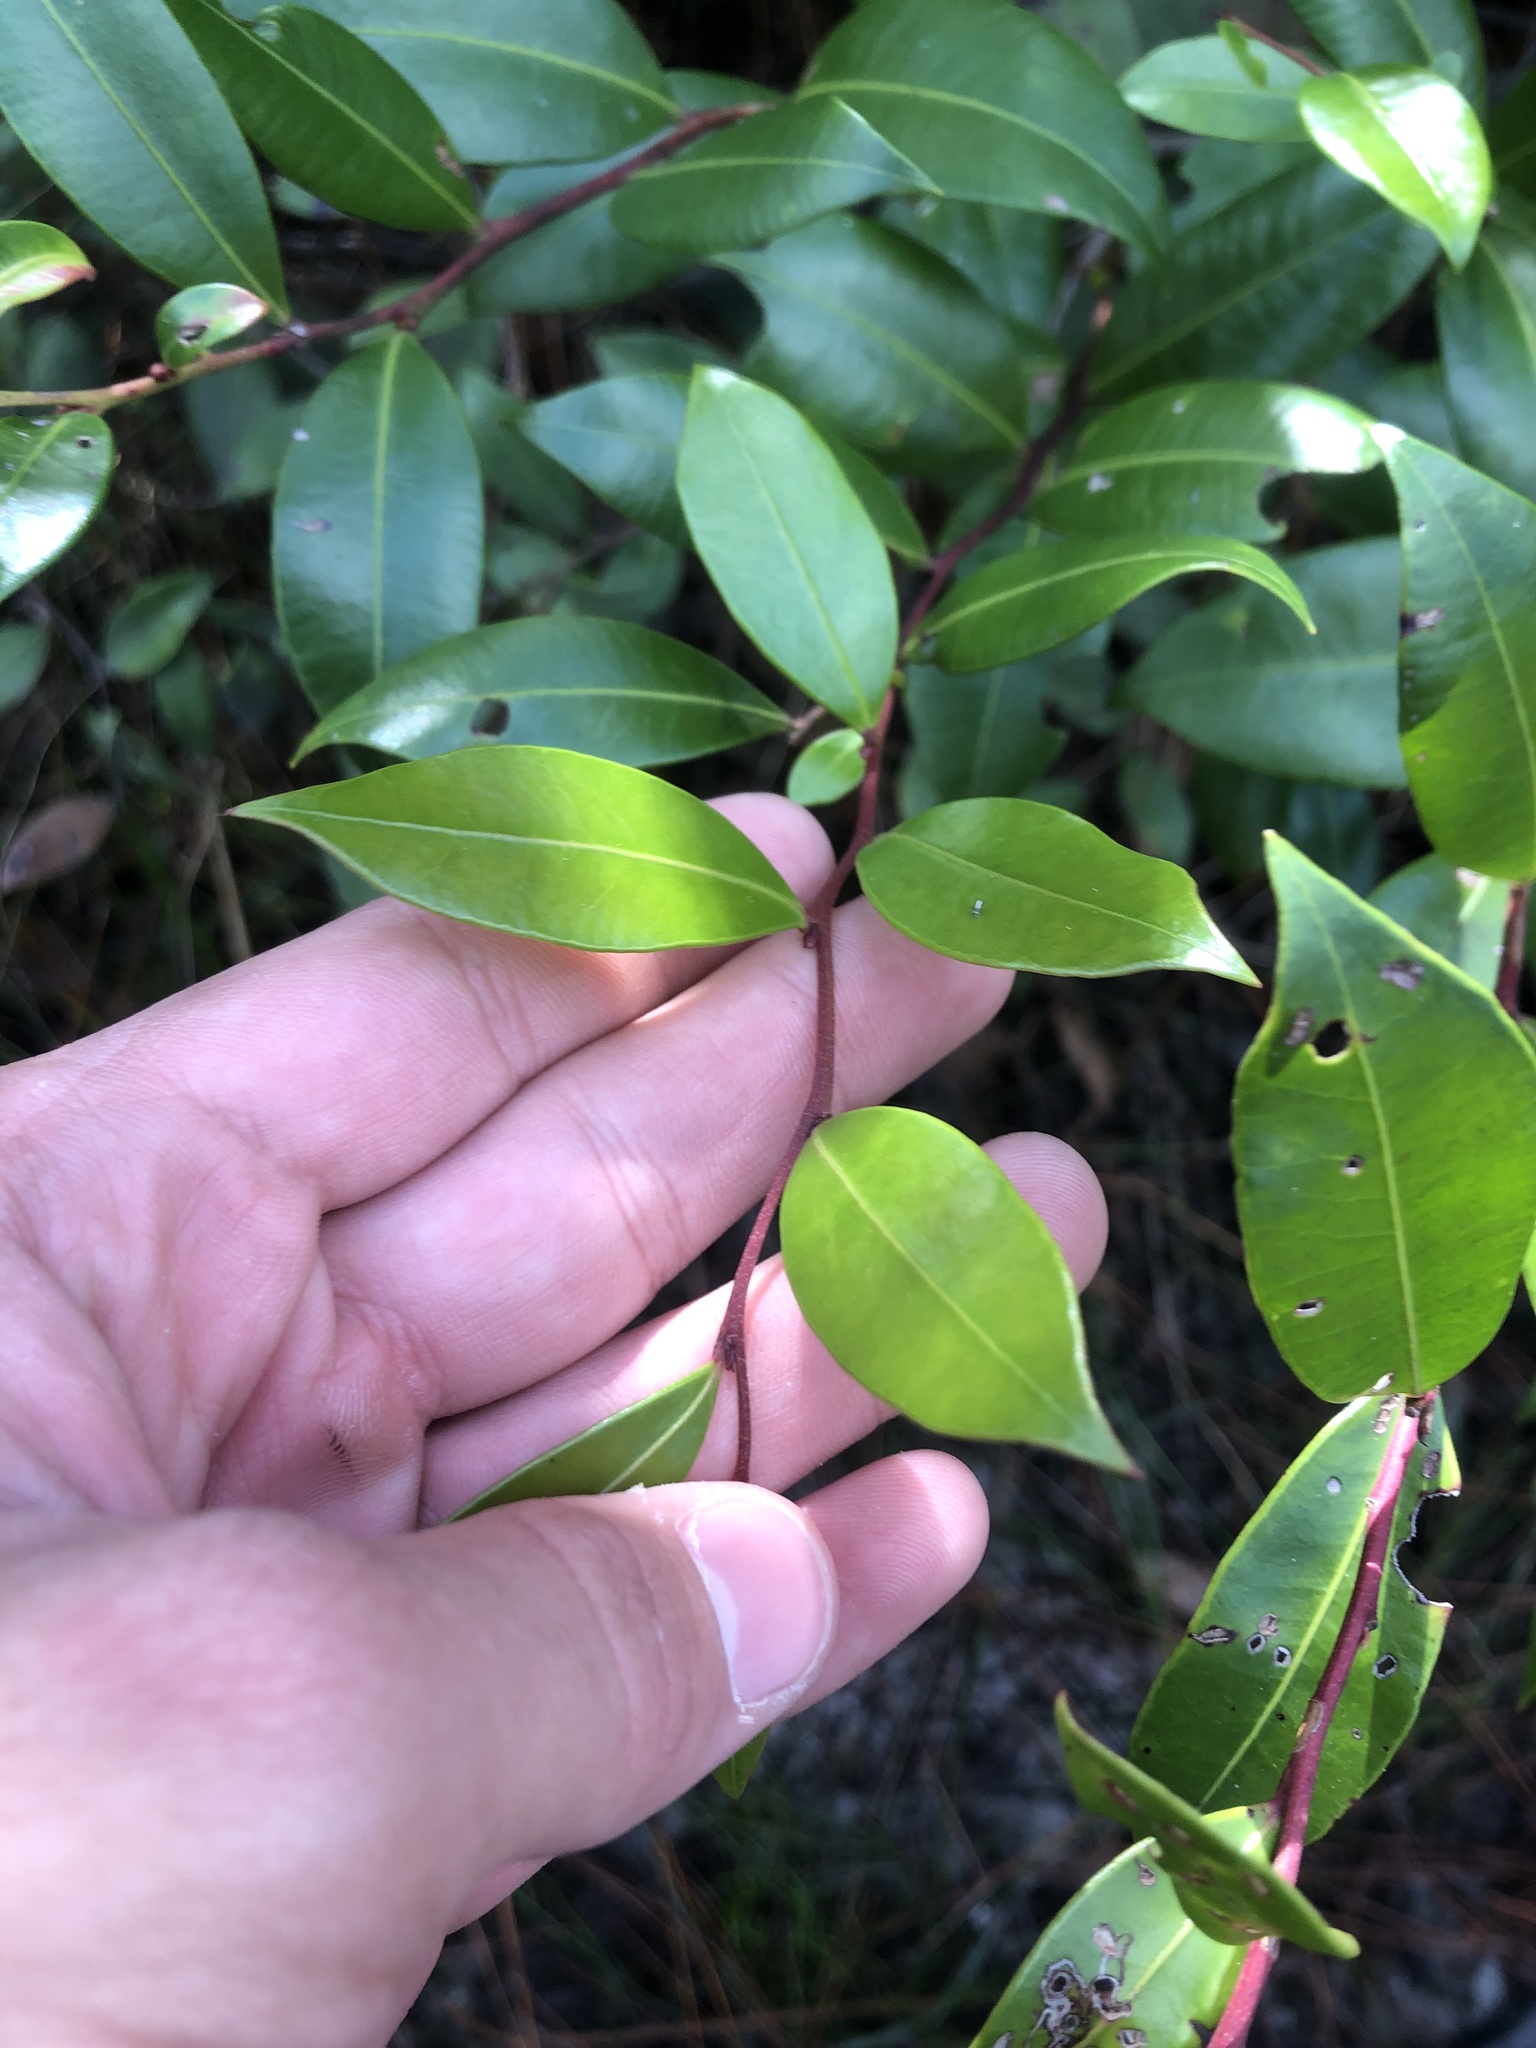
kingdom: Plantae
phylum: Tracheophyta
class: Magnoliopsida
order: Ericales
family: Ericaceae
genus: Lyonia
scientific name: Lyonia lucida
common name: Fetterbush
